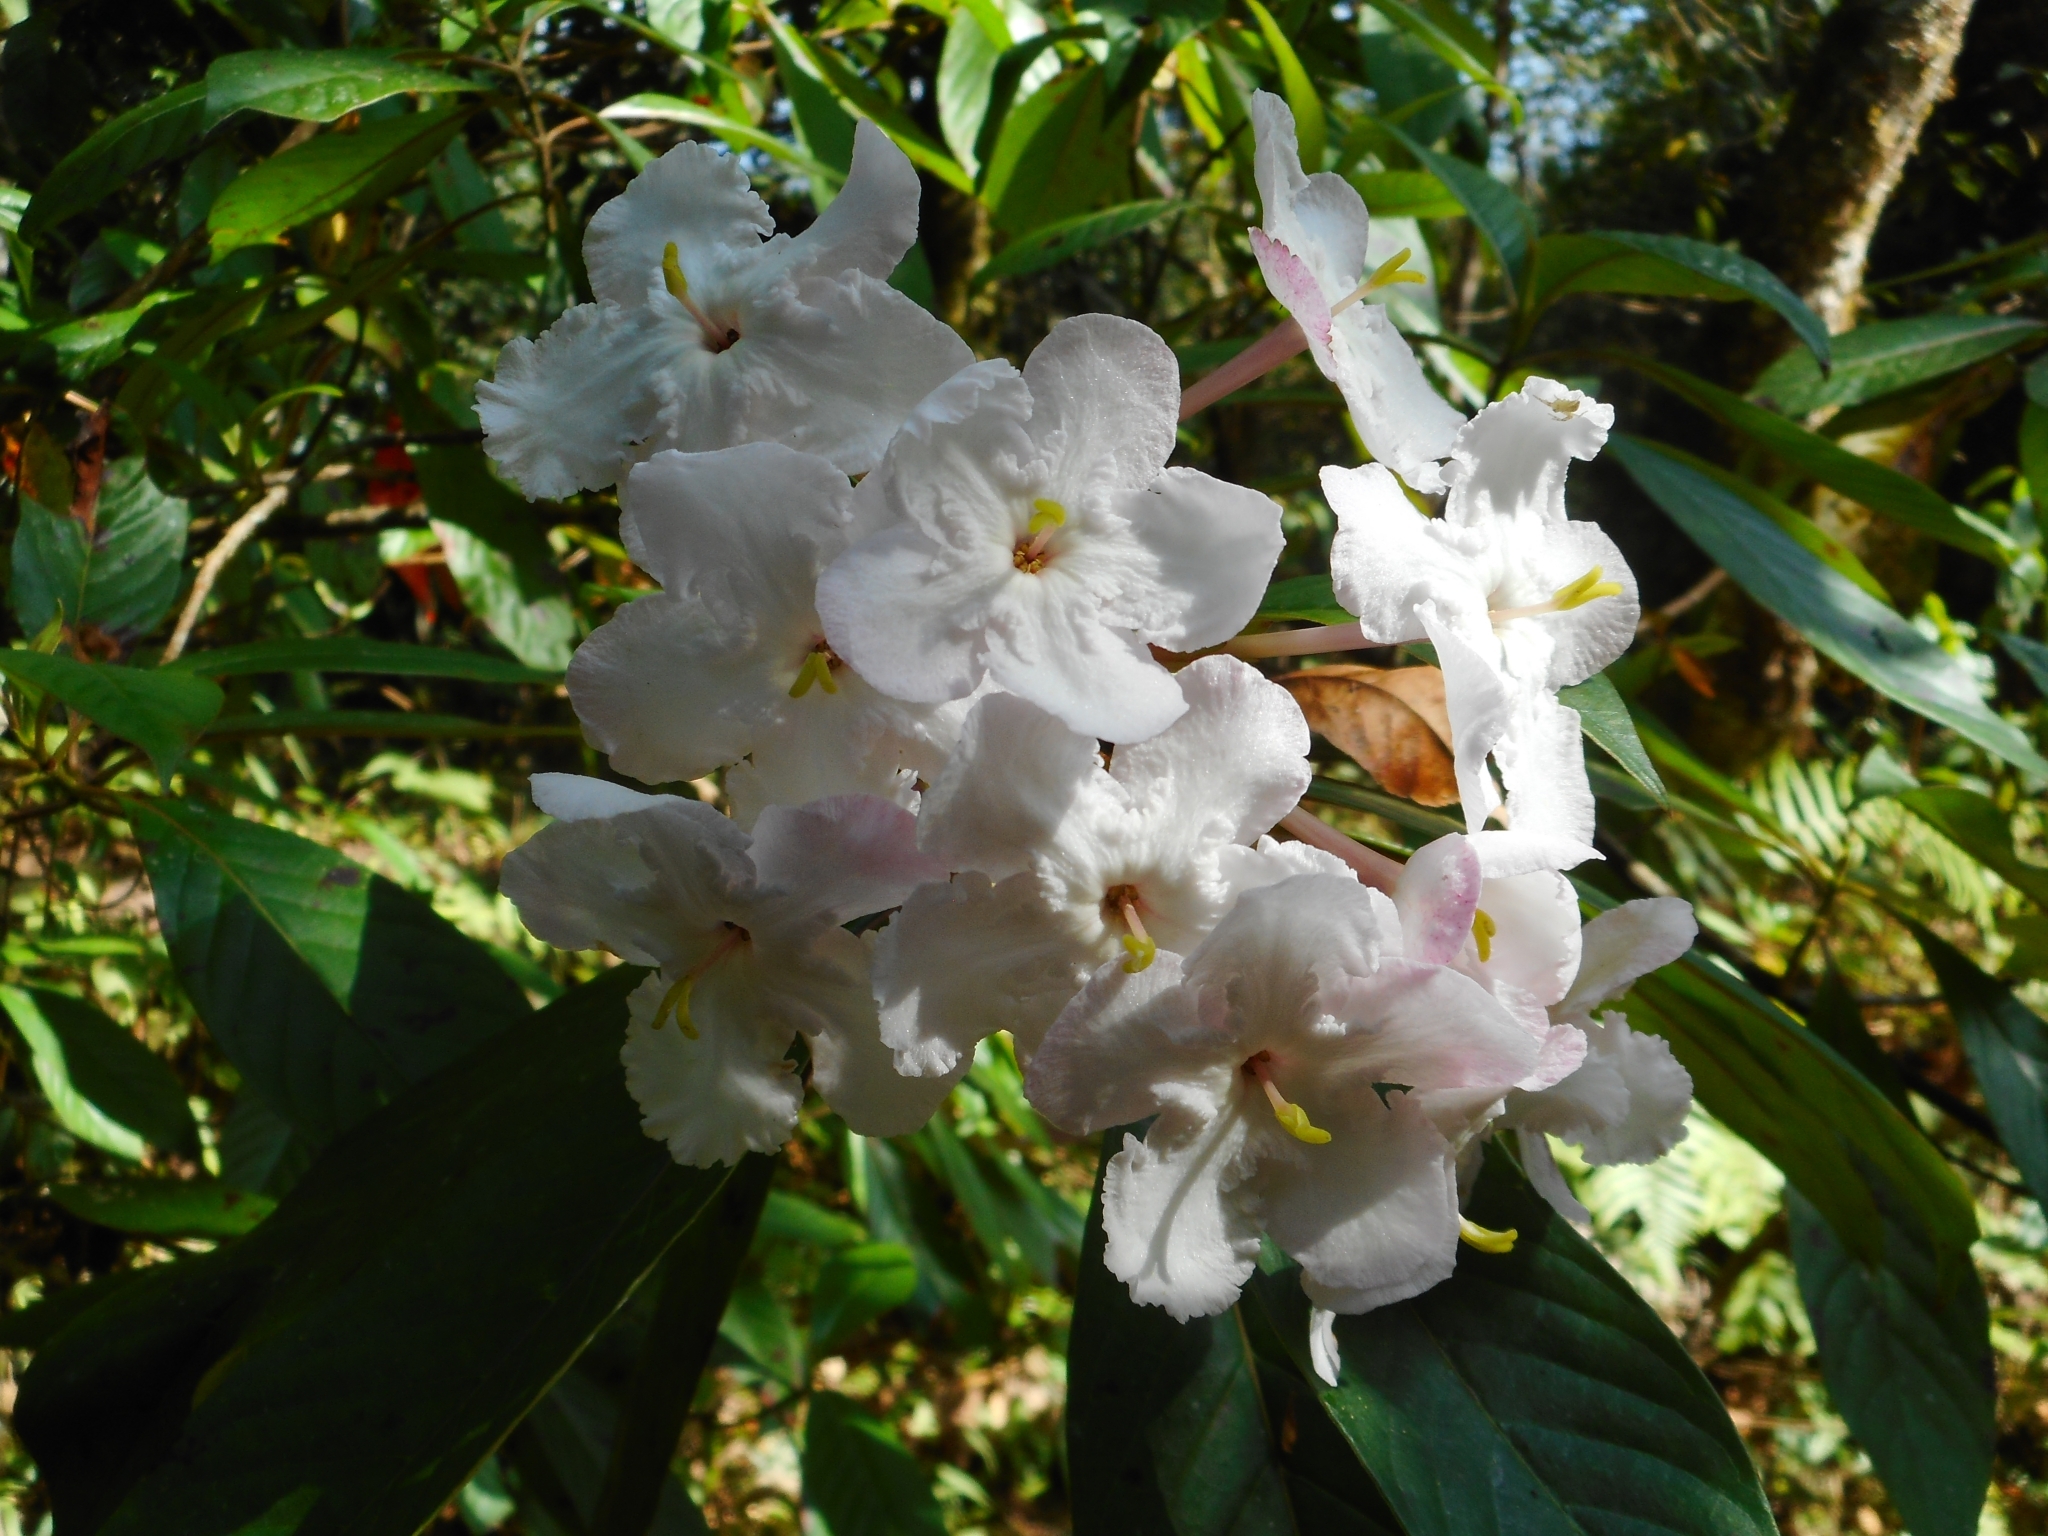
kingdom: Plantae
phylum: Tracheophyta
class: Magnoliopsida
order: Gentianales
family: Rubiaceae
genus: Luculia
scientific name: Luculia gratissima
